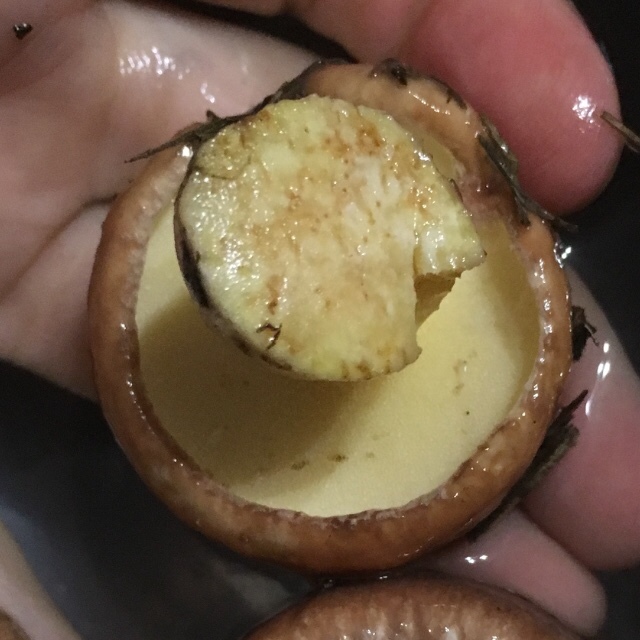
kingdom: Fungi
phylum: Basidiomycota
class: Agaricomycetes
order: Boletales
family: Suillaceae
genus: Suillus
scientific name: Suillus granulatus
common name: Weeping bolete
